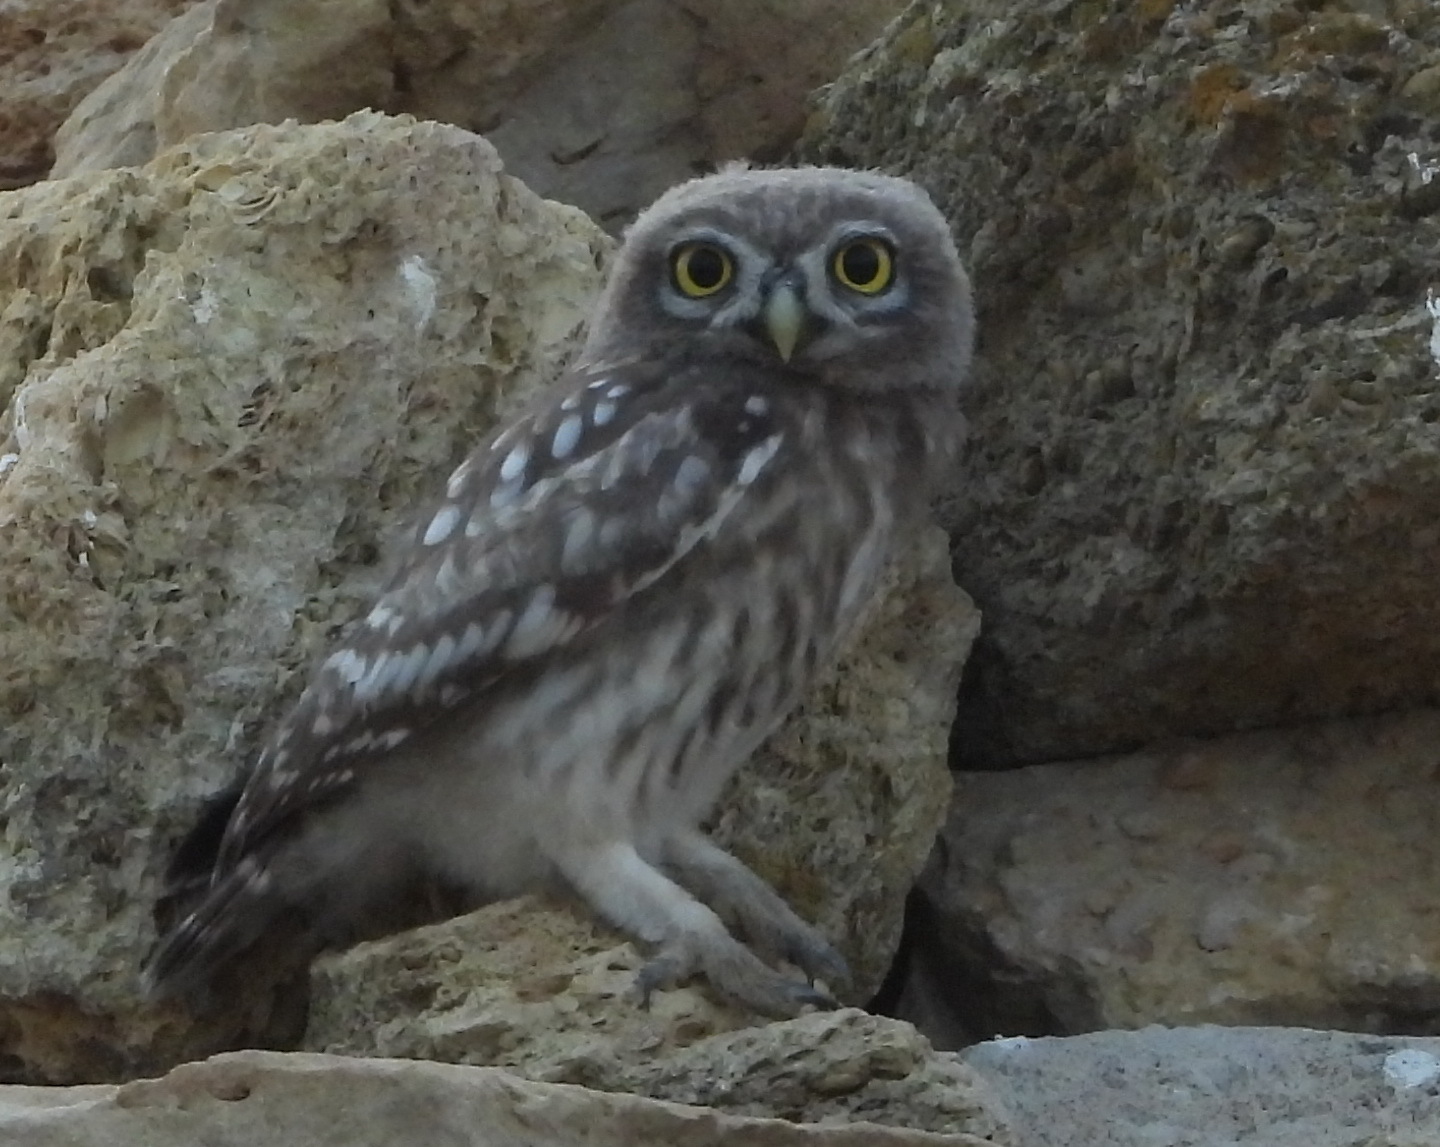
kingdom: Animalia
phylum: Chordata
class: Aves
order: Strigiformes
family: Strigidae
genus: Athene
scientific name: Athene noctua
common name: Little owl
